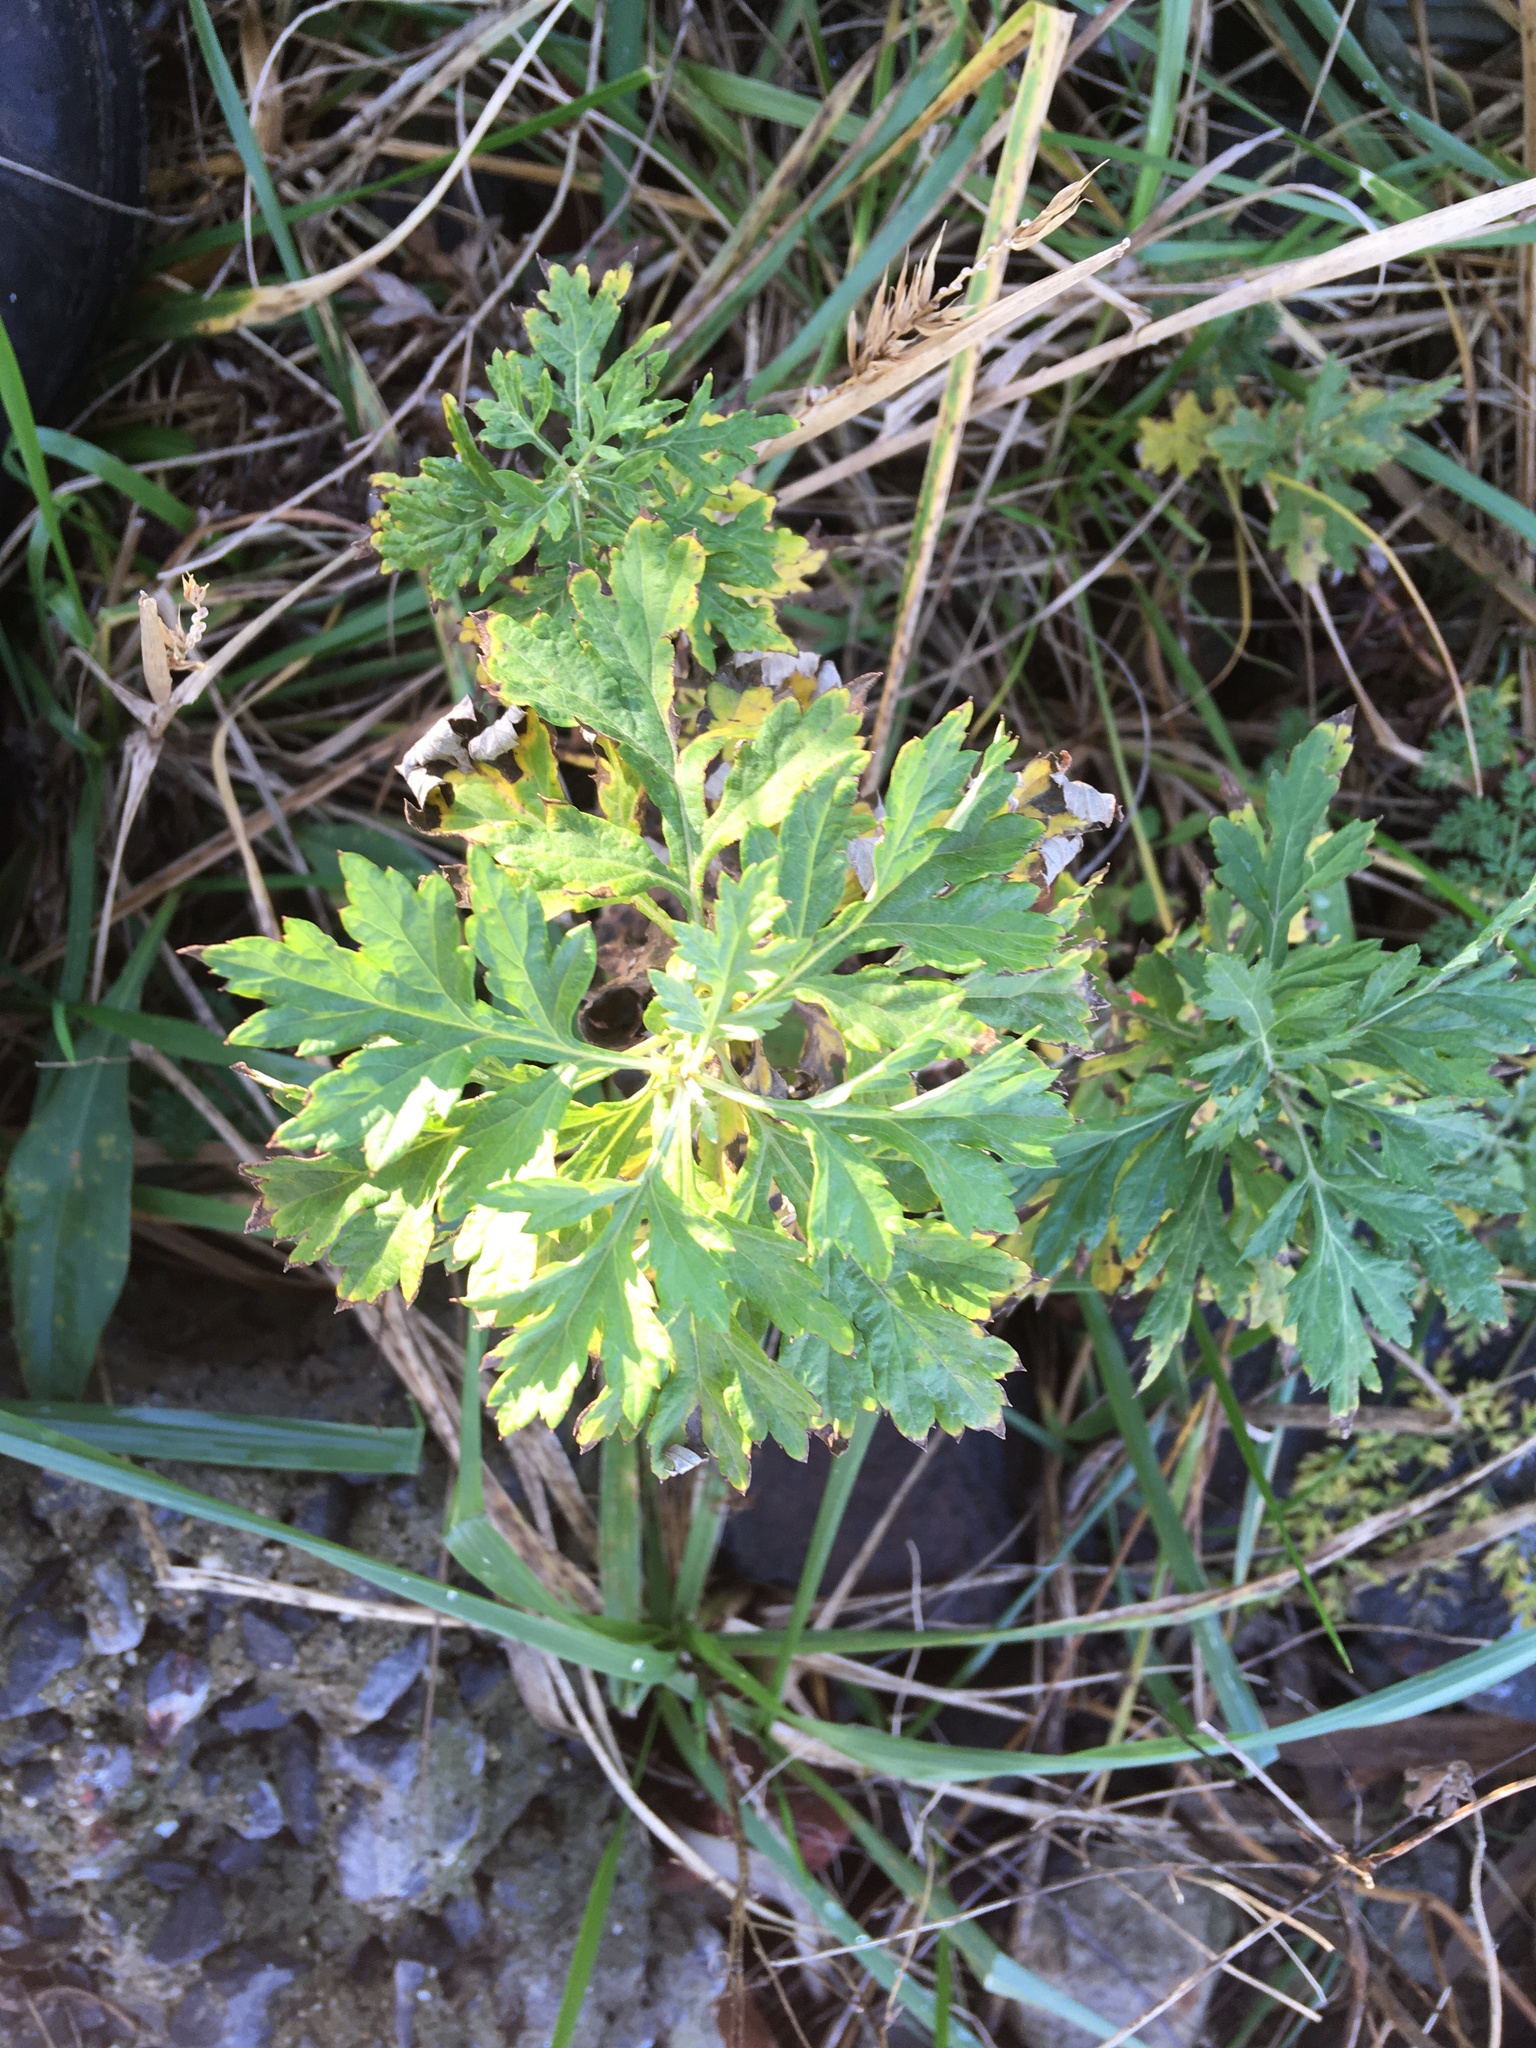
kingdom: Plantae
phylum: Tracheophyta
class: Magnoliopsida
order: Asterales
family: Asteraceae
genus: Artemisia
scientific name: Artemisia vulgaris
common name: Mugwort
